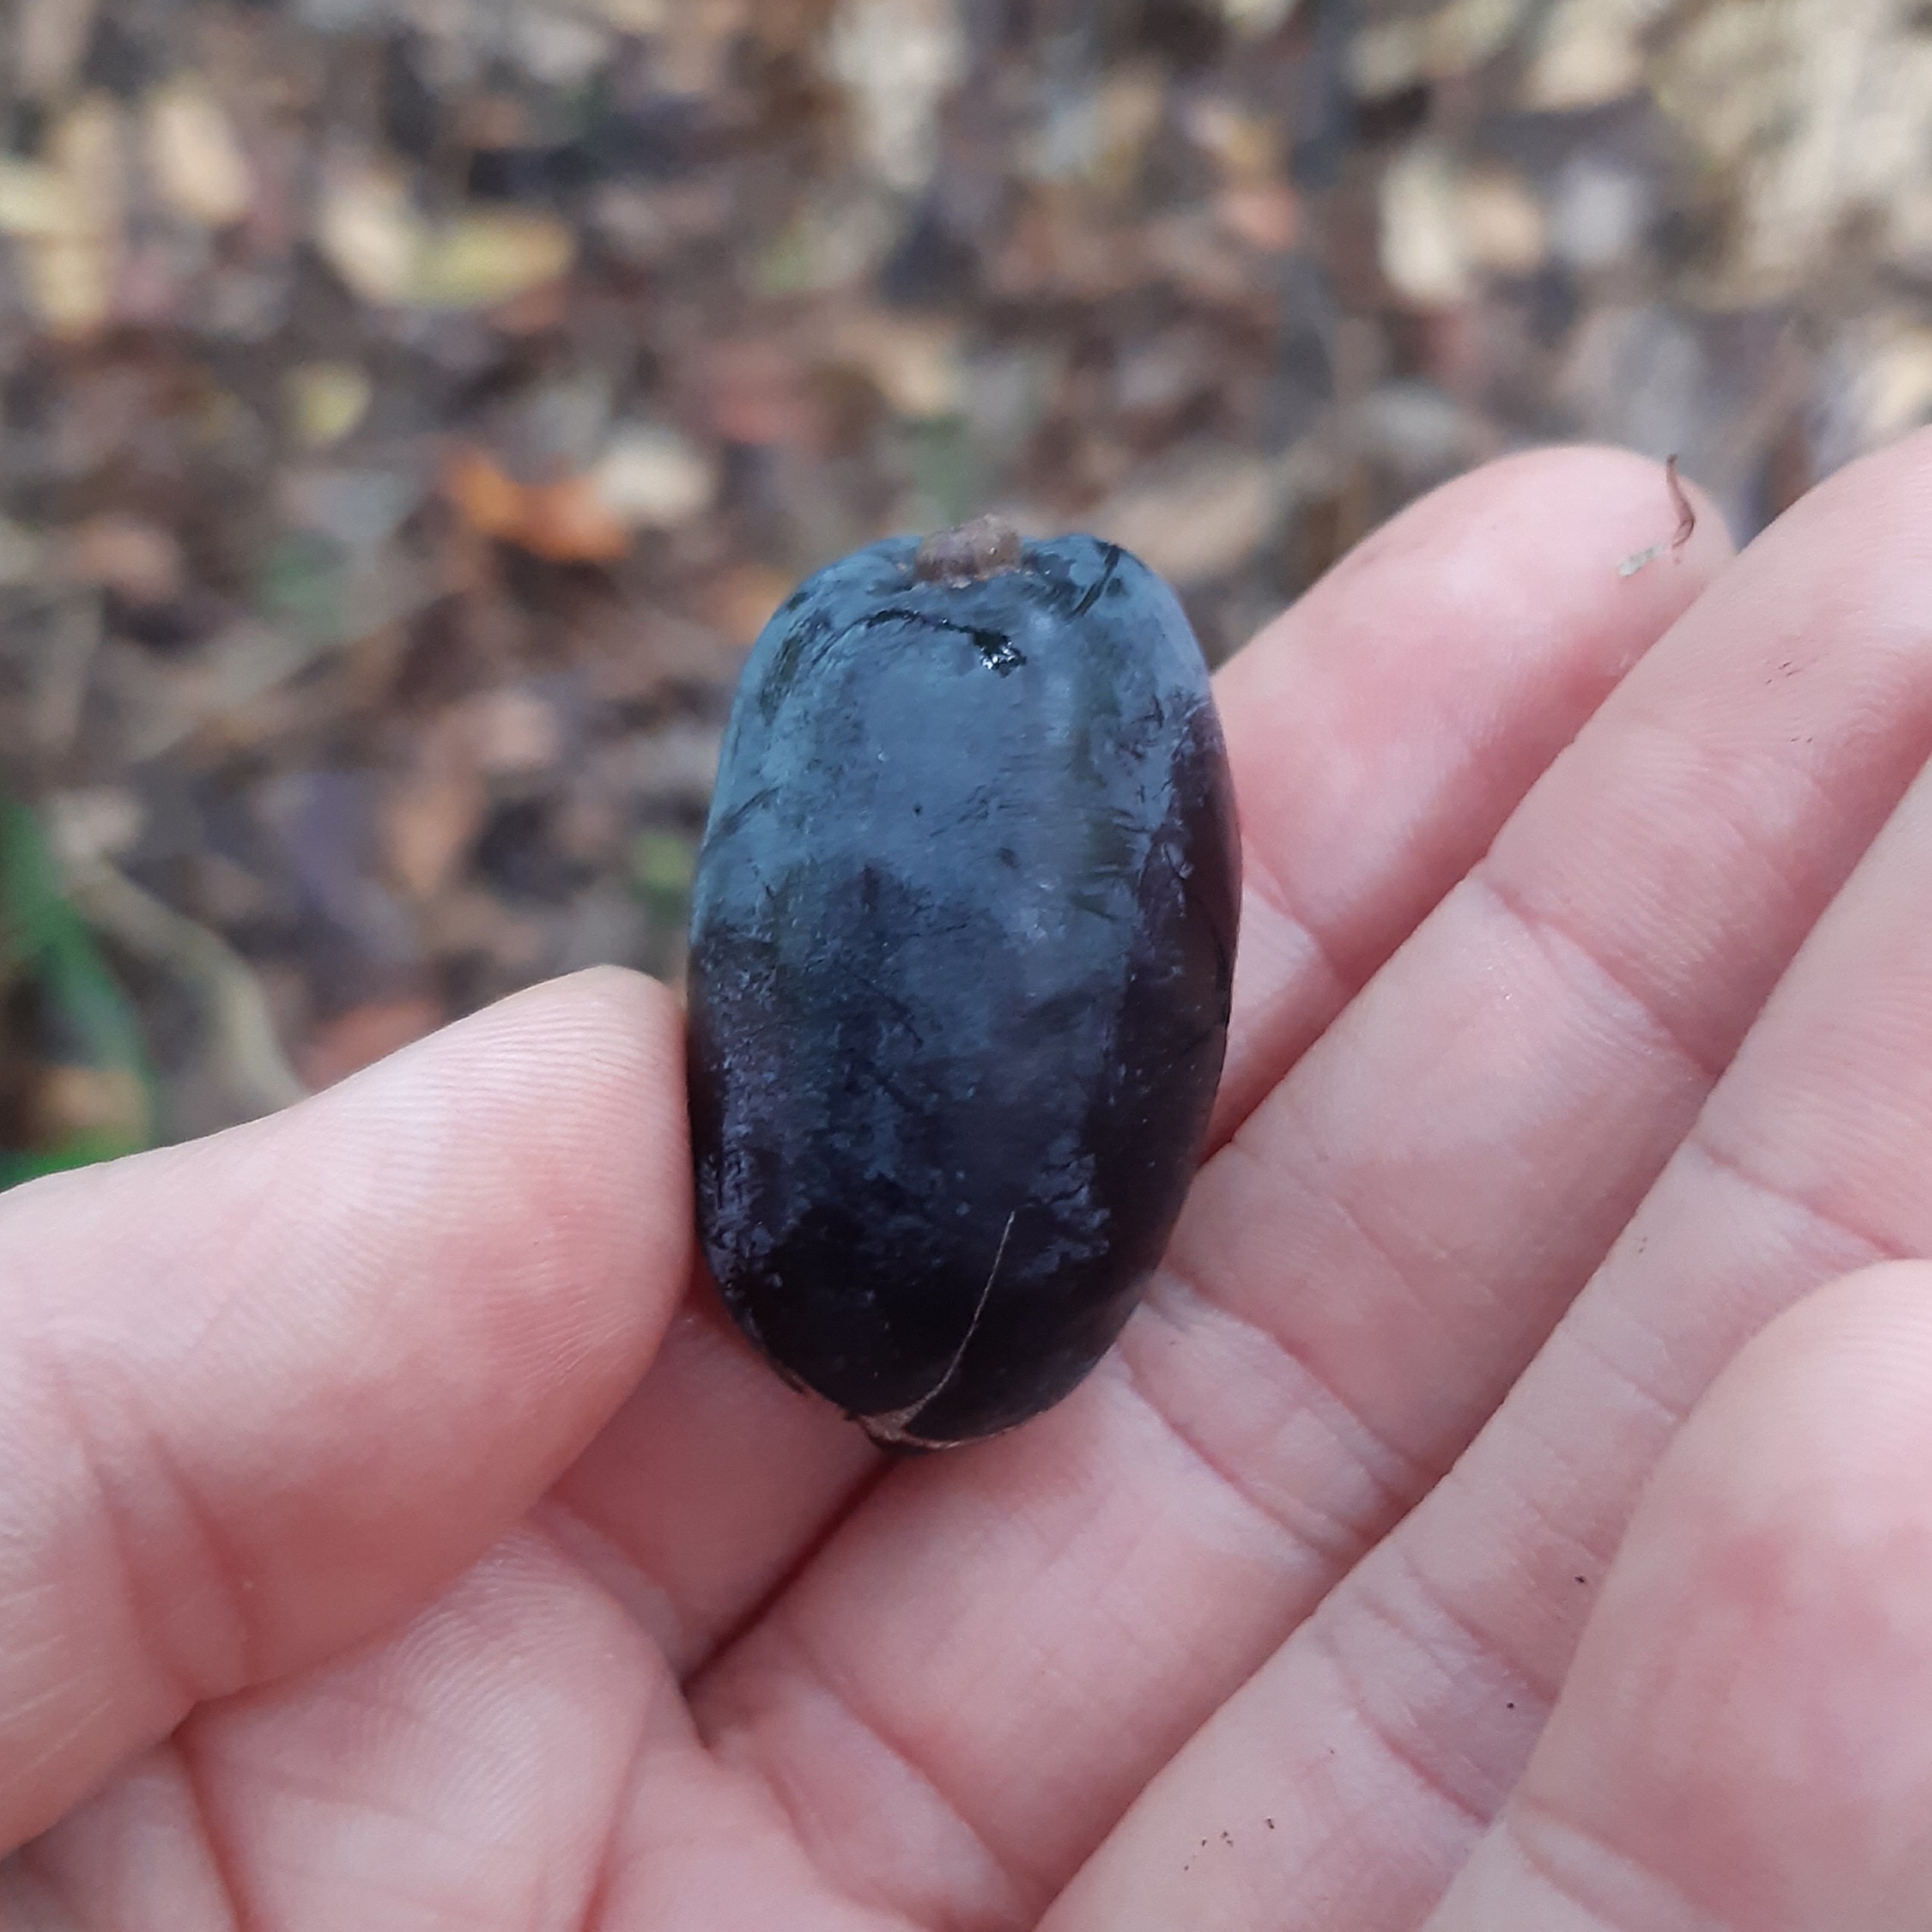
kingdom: Plantae
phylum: Tracheophyta
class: Magnoliopsida
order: Laurales
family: Lauraceae
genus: Beilschmiedia
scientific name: Beilschmiedia tawa
